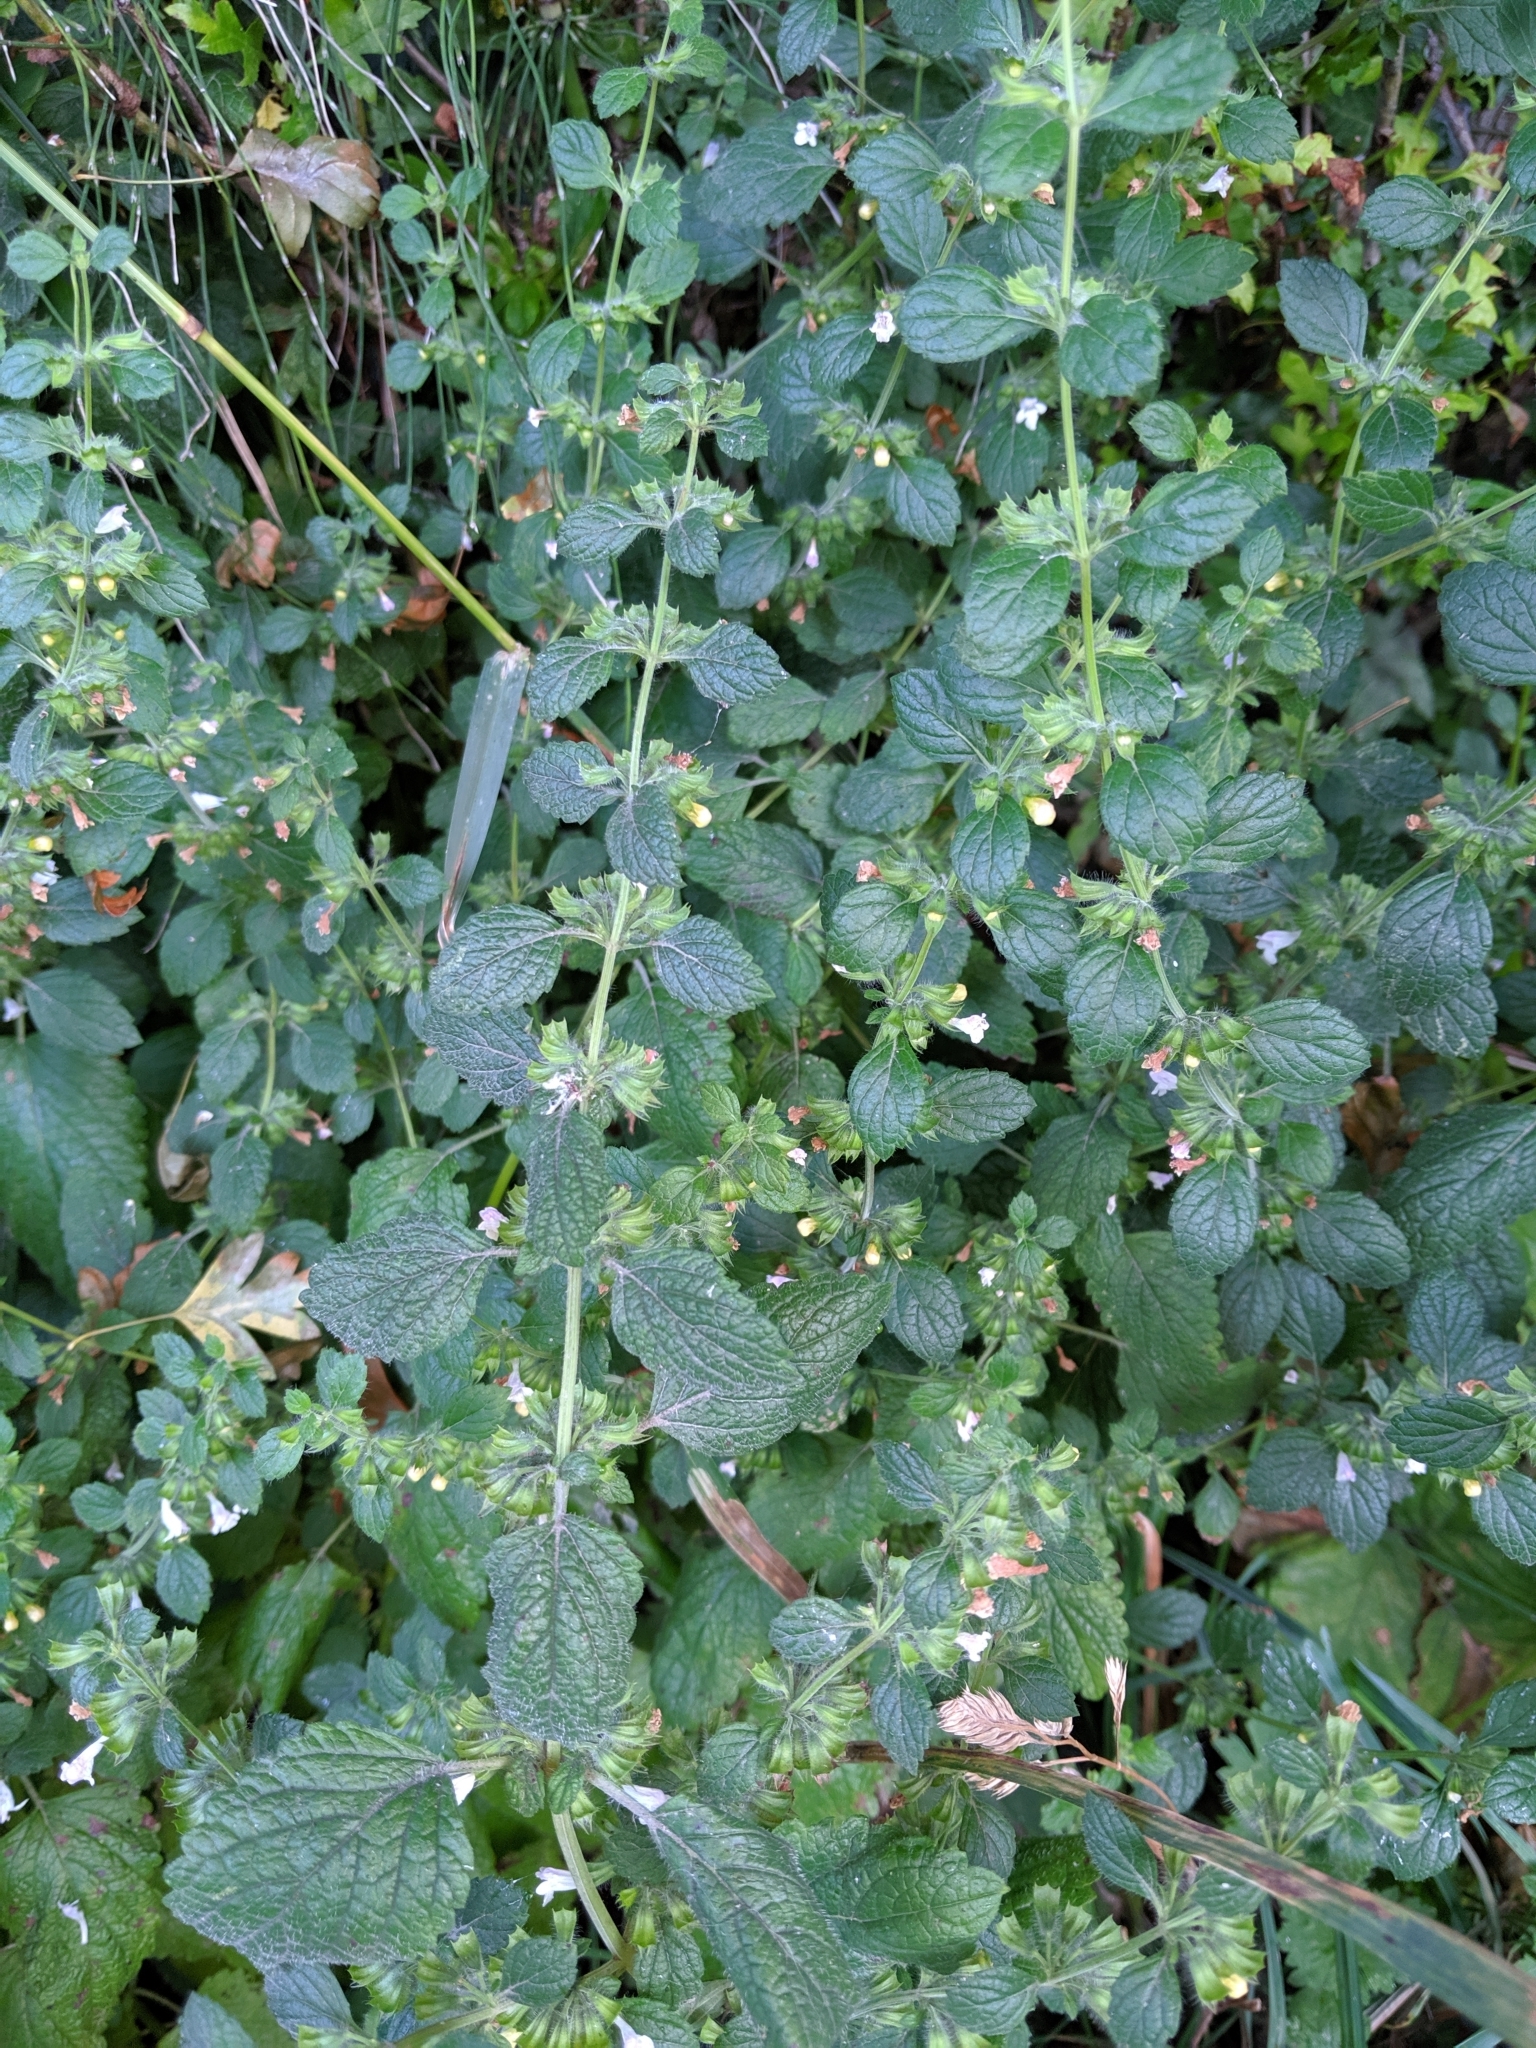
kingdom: Plantae
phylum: Tracheophyta
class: Magnoliopsida
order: Lamiales
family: Lamiaceae
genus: Melissa
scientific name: Melissa officinalis
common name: Balm
